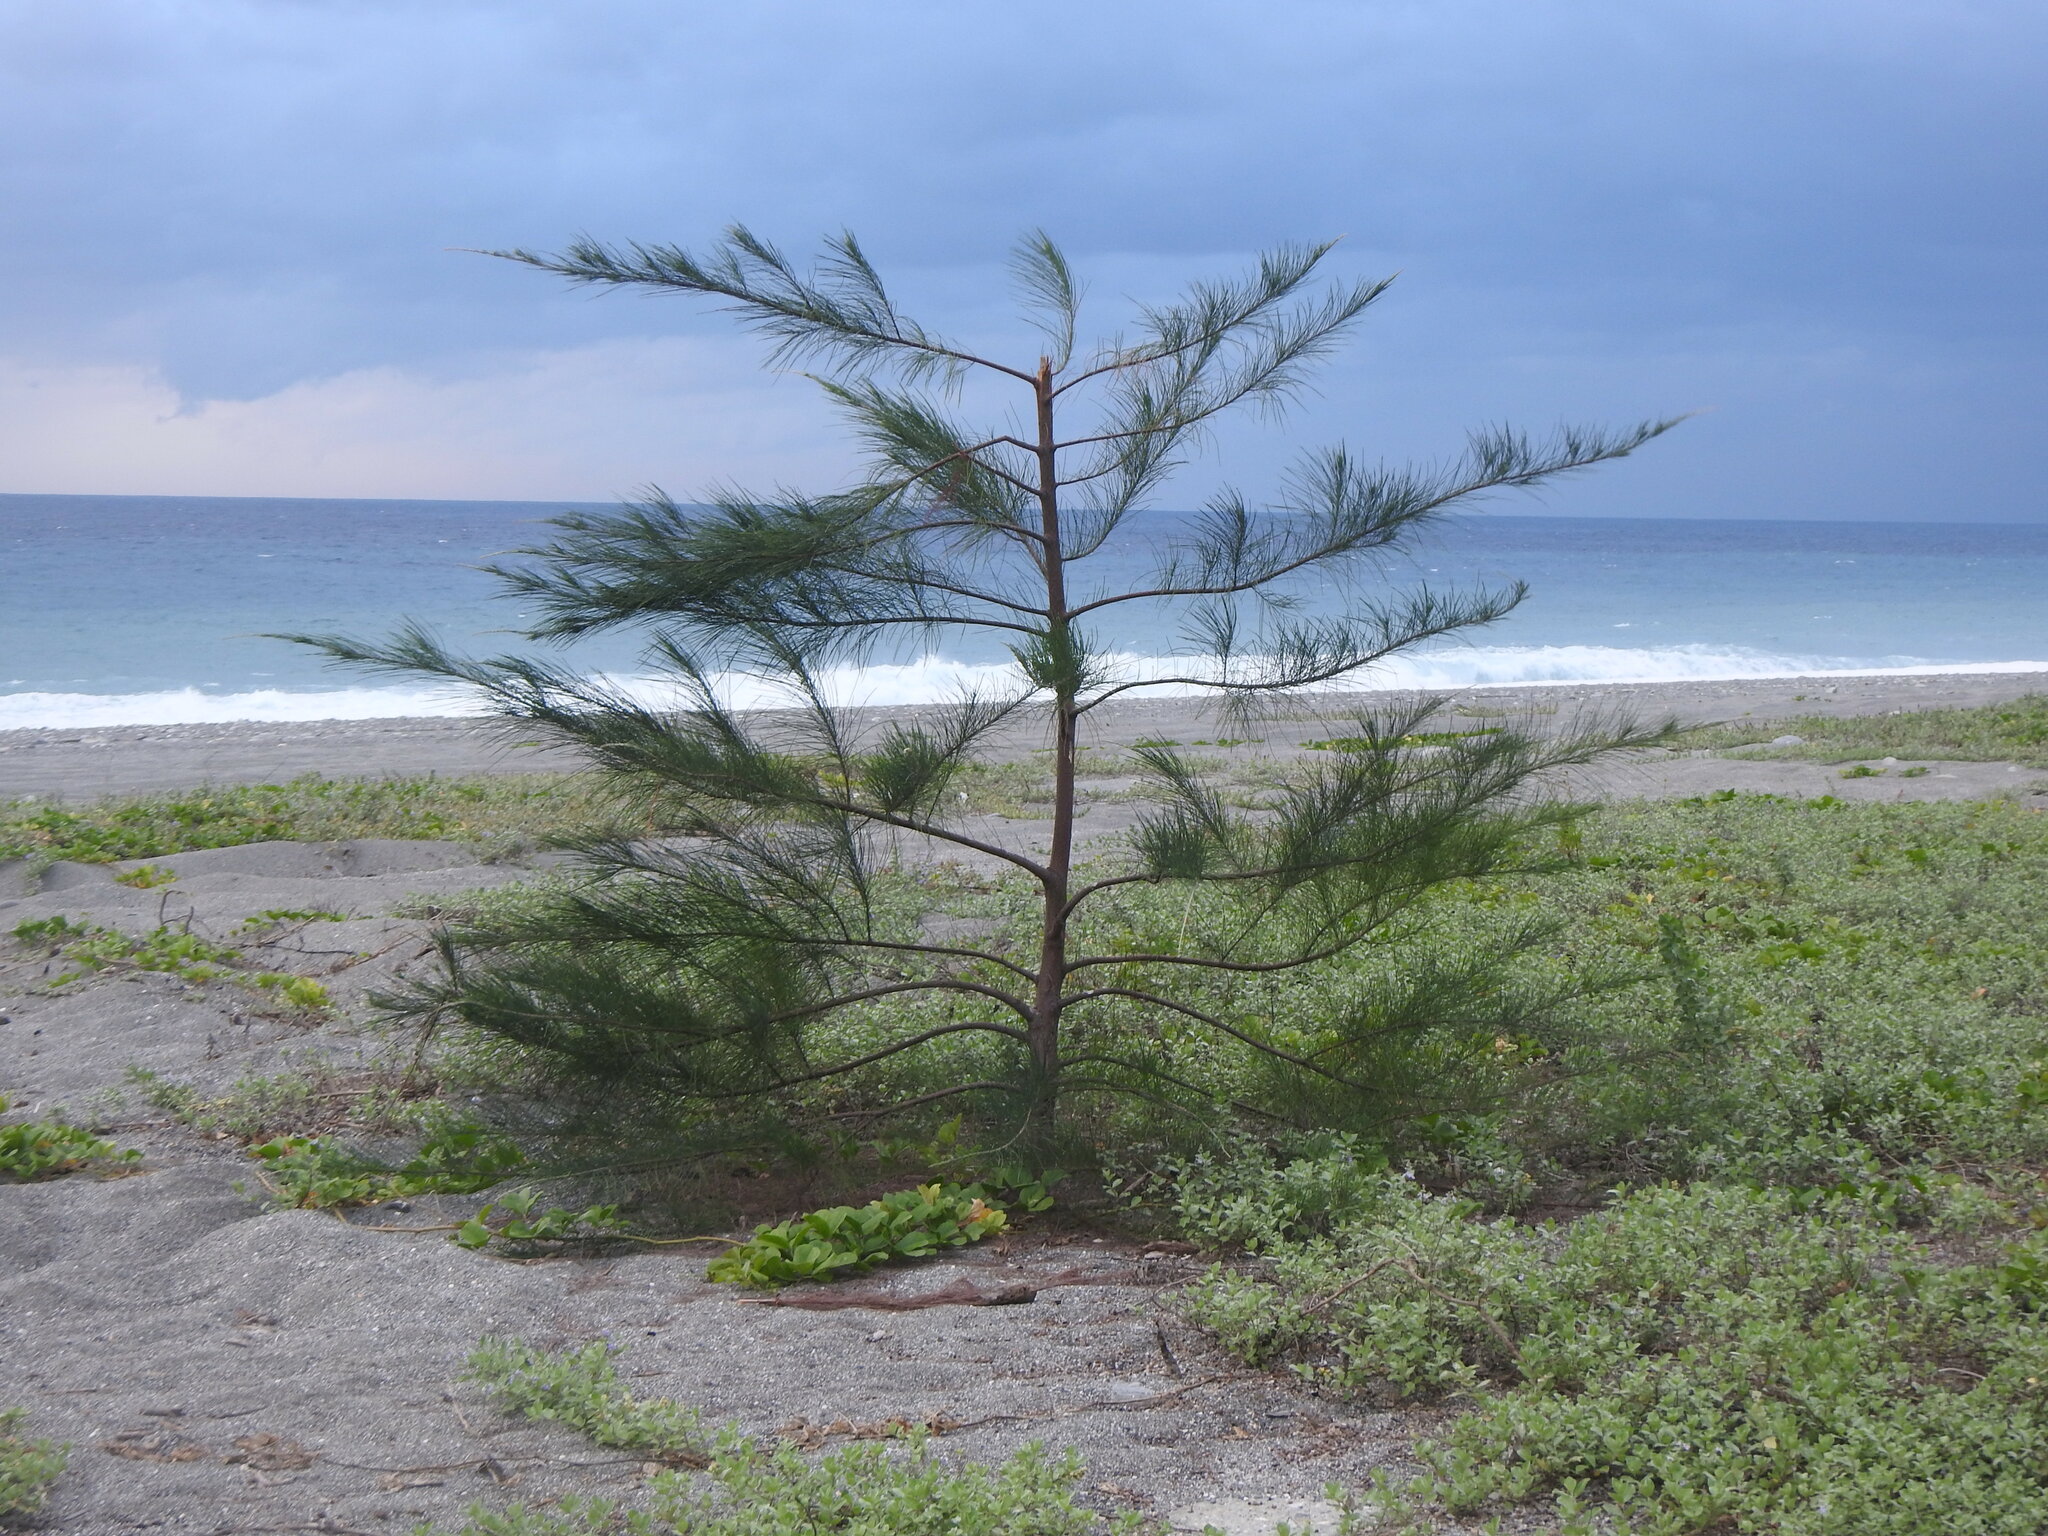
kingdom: Plantae
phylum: Tracheophyta
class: Magnoliopsida
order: Fagales
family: Casuarinaceae
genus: Casuarina
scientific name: Casuarina equisetifolia
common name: Beach sheoak
